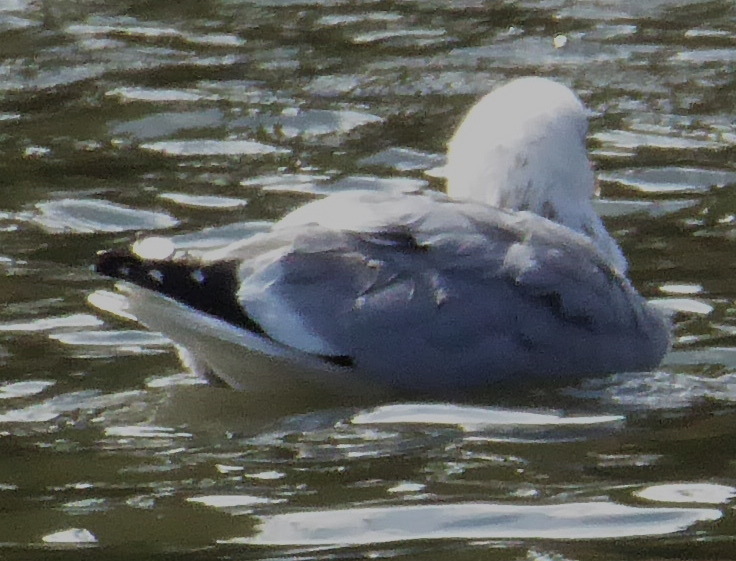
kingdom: Animalia
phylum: Chordata
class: Aves
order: Charadriiformes
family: Laridae
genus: Larus
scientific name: Larus glaucoides
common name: Iceland gull
